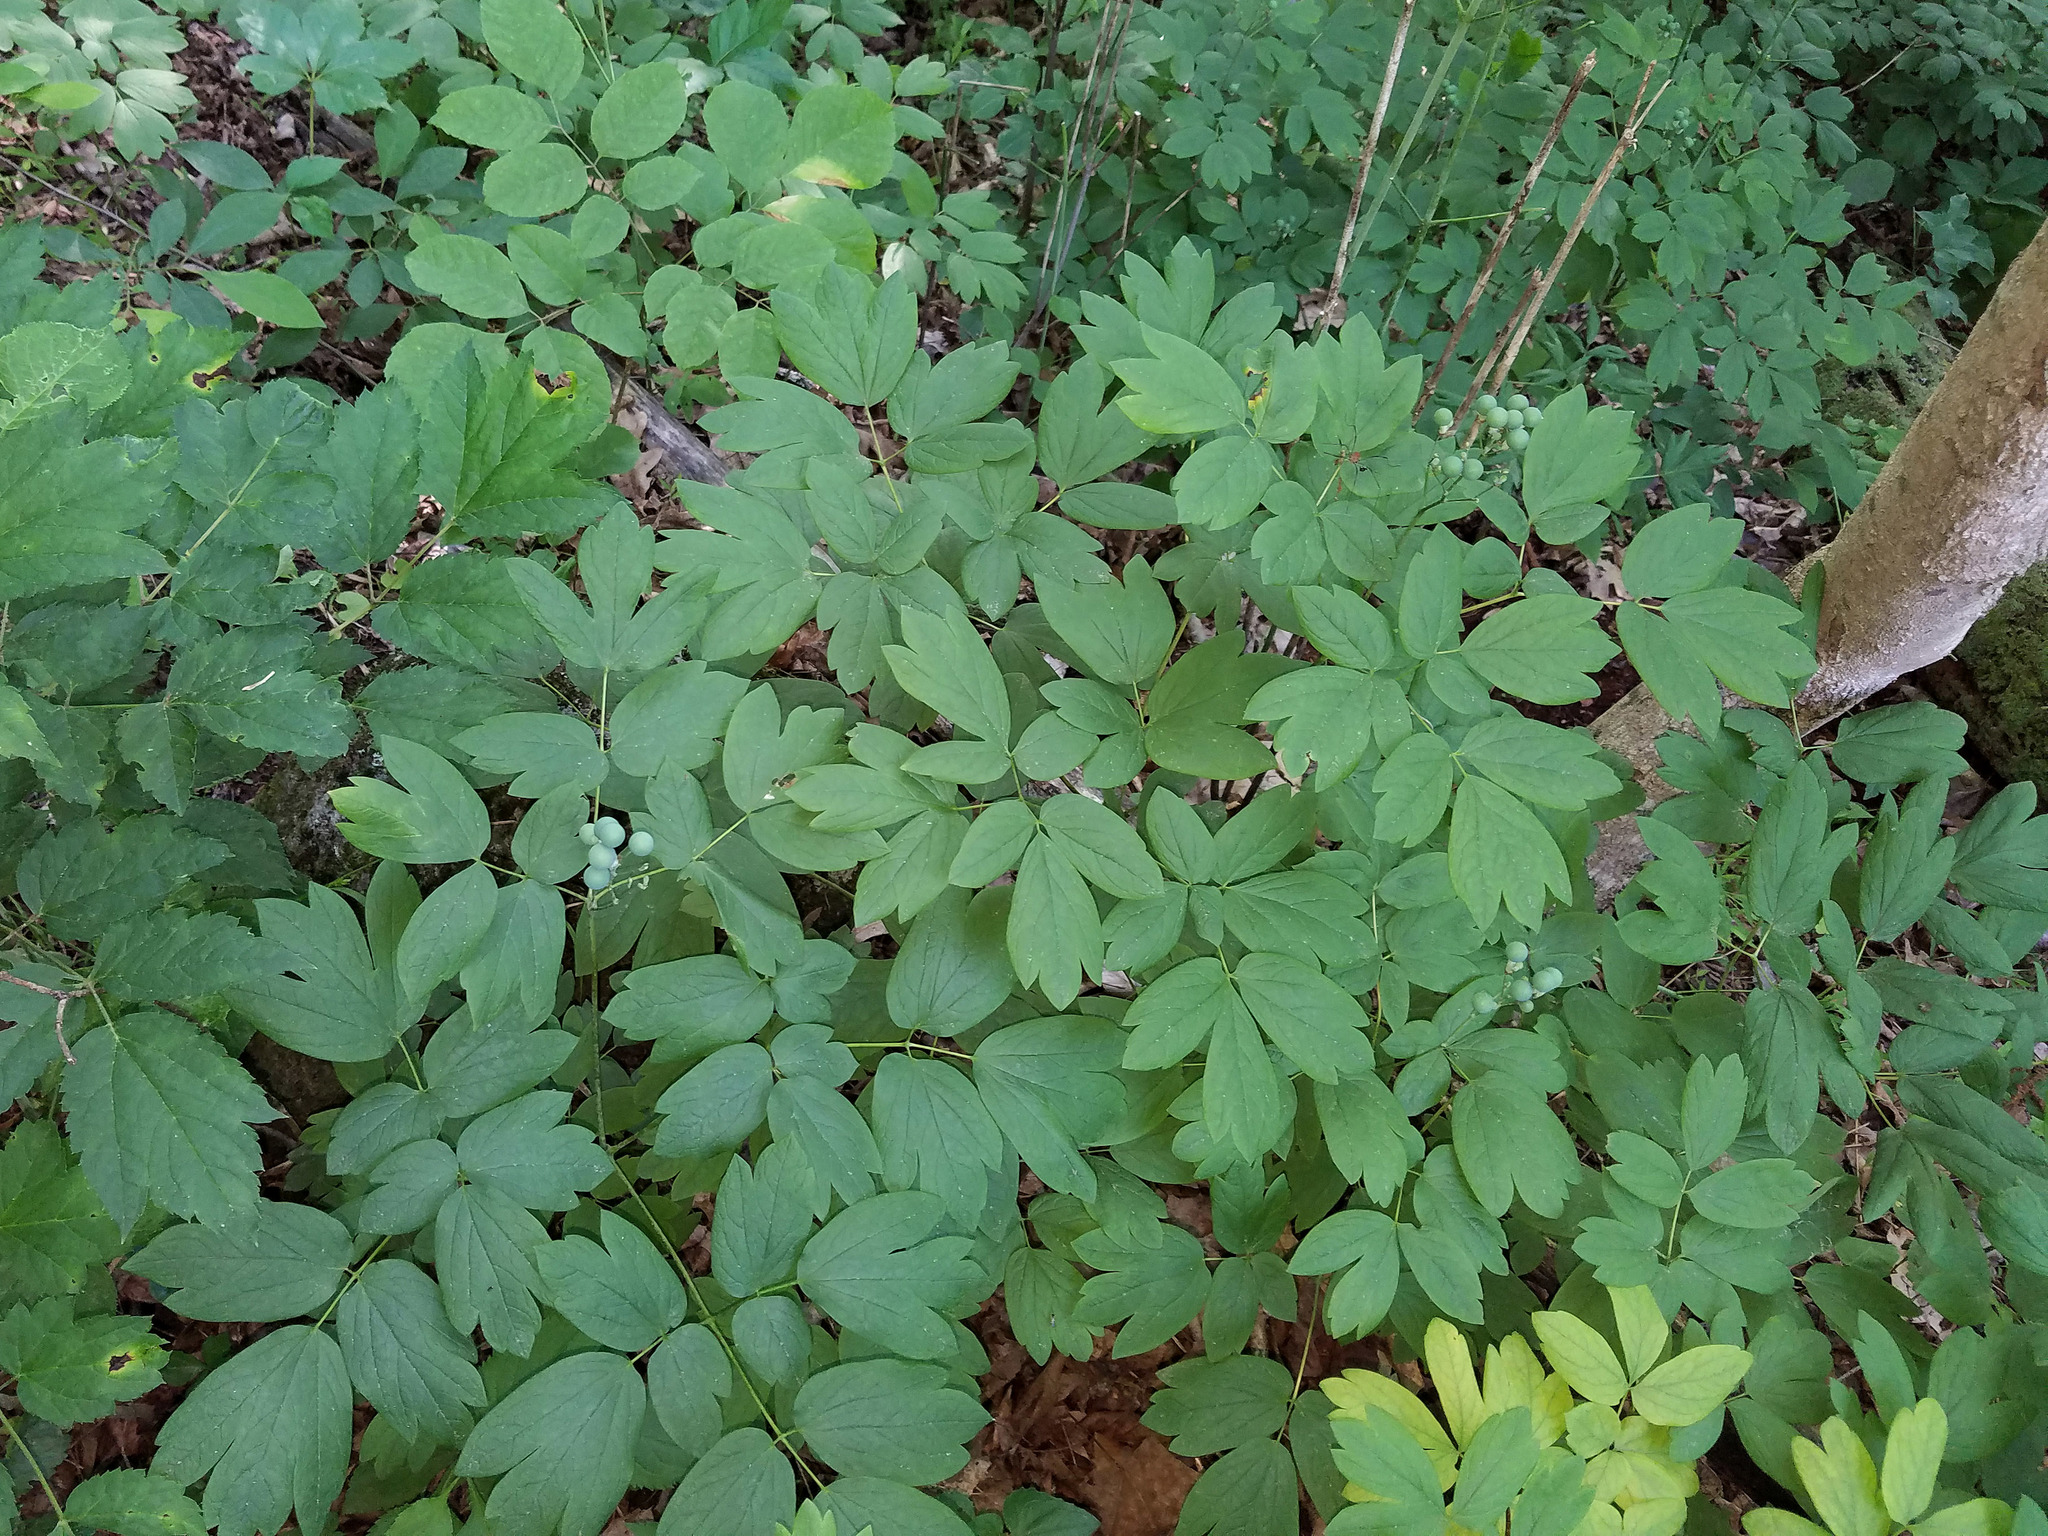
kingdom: Plantae
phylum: Tracheophyta
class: Magnoliopsida
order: Ranunculales
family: Berberidaceae
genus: Caulophyllum
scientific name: Caulophyllum thalictroides
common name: Blue cohosh
